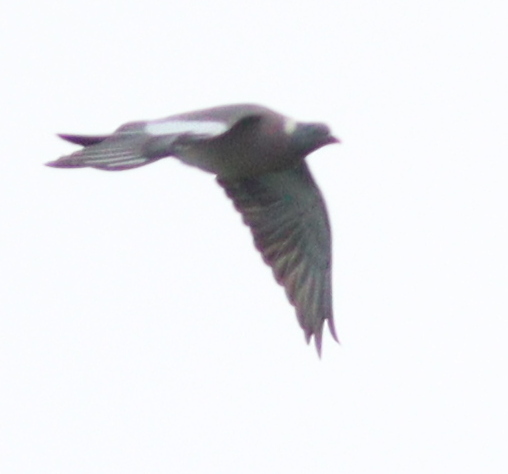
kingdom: Animalia
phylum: Chordata
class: Aves
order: Columbiformes
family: Columbidae
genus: Columba
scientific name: Columba palumbus
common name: Common wood pigeon
